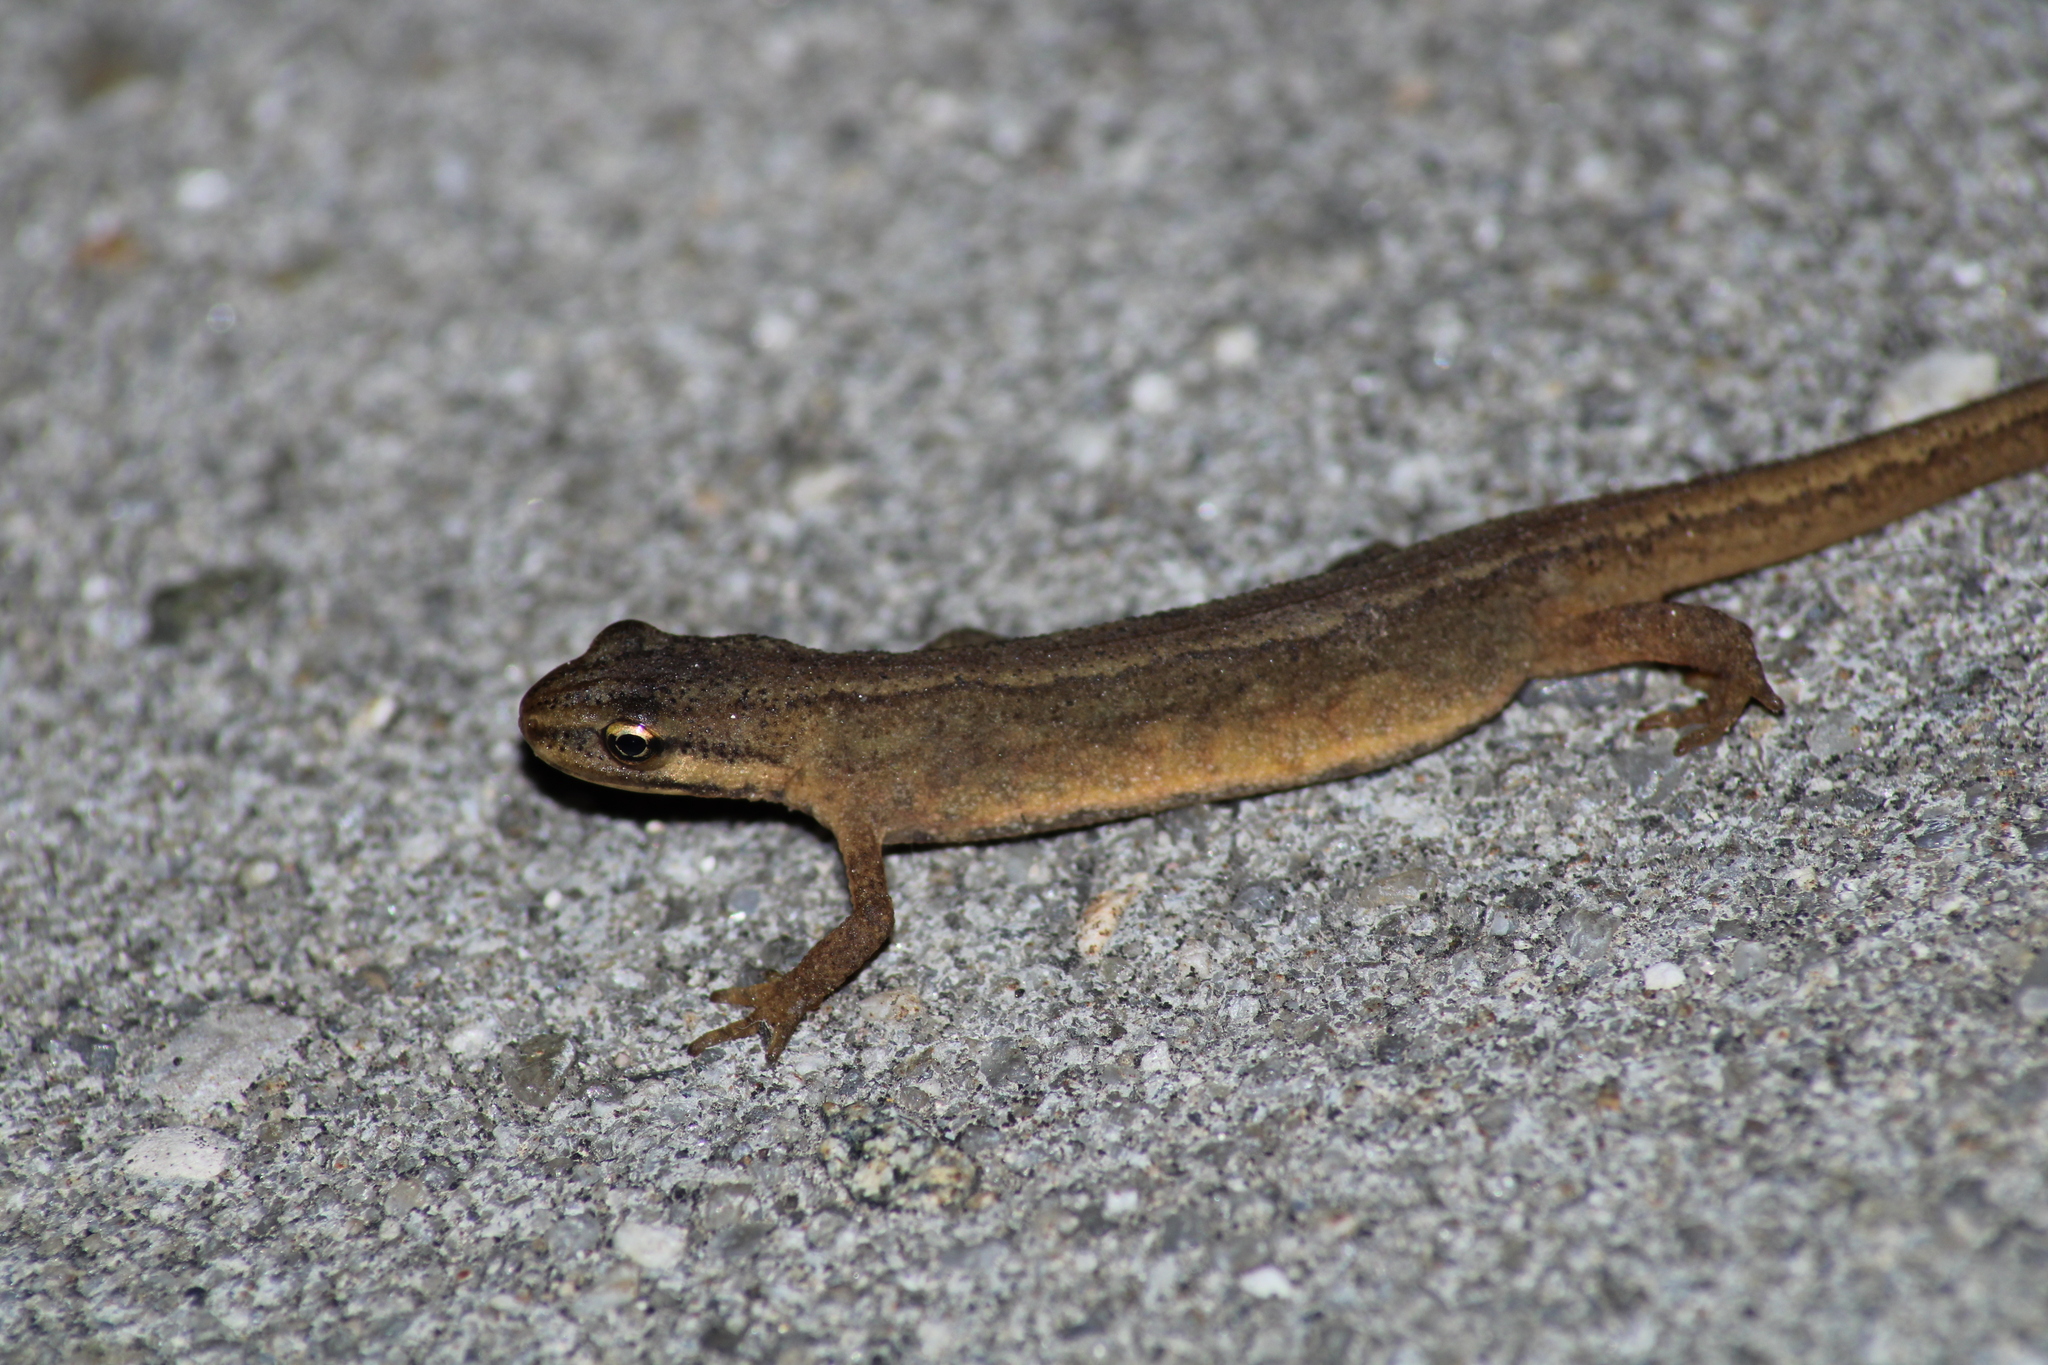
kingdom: Animalia
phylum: Chordata
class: Amphibia
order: Caudata
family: Salamandridae
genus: Lissotriton
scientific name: Lissotriton vulgaris
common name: Smooth newt
